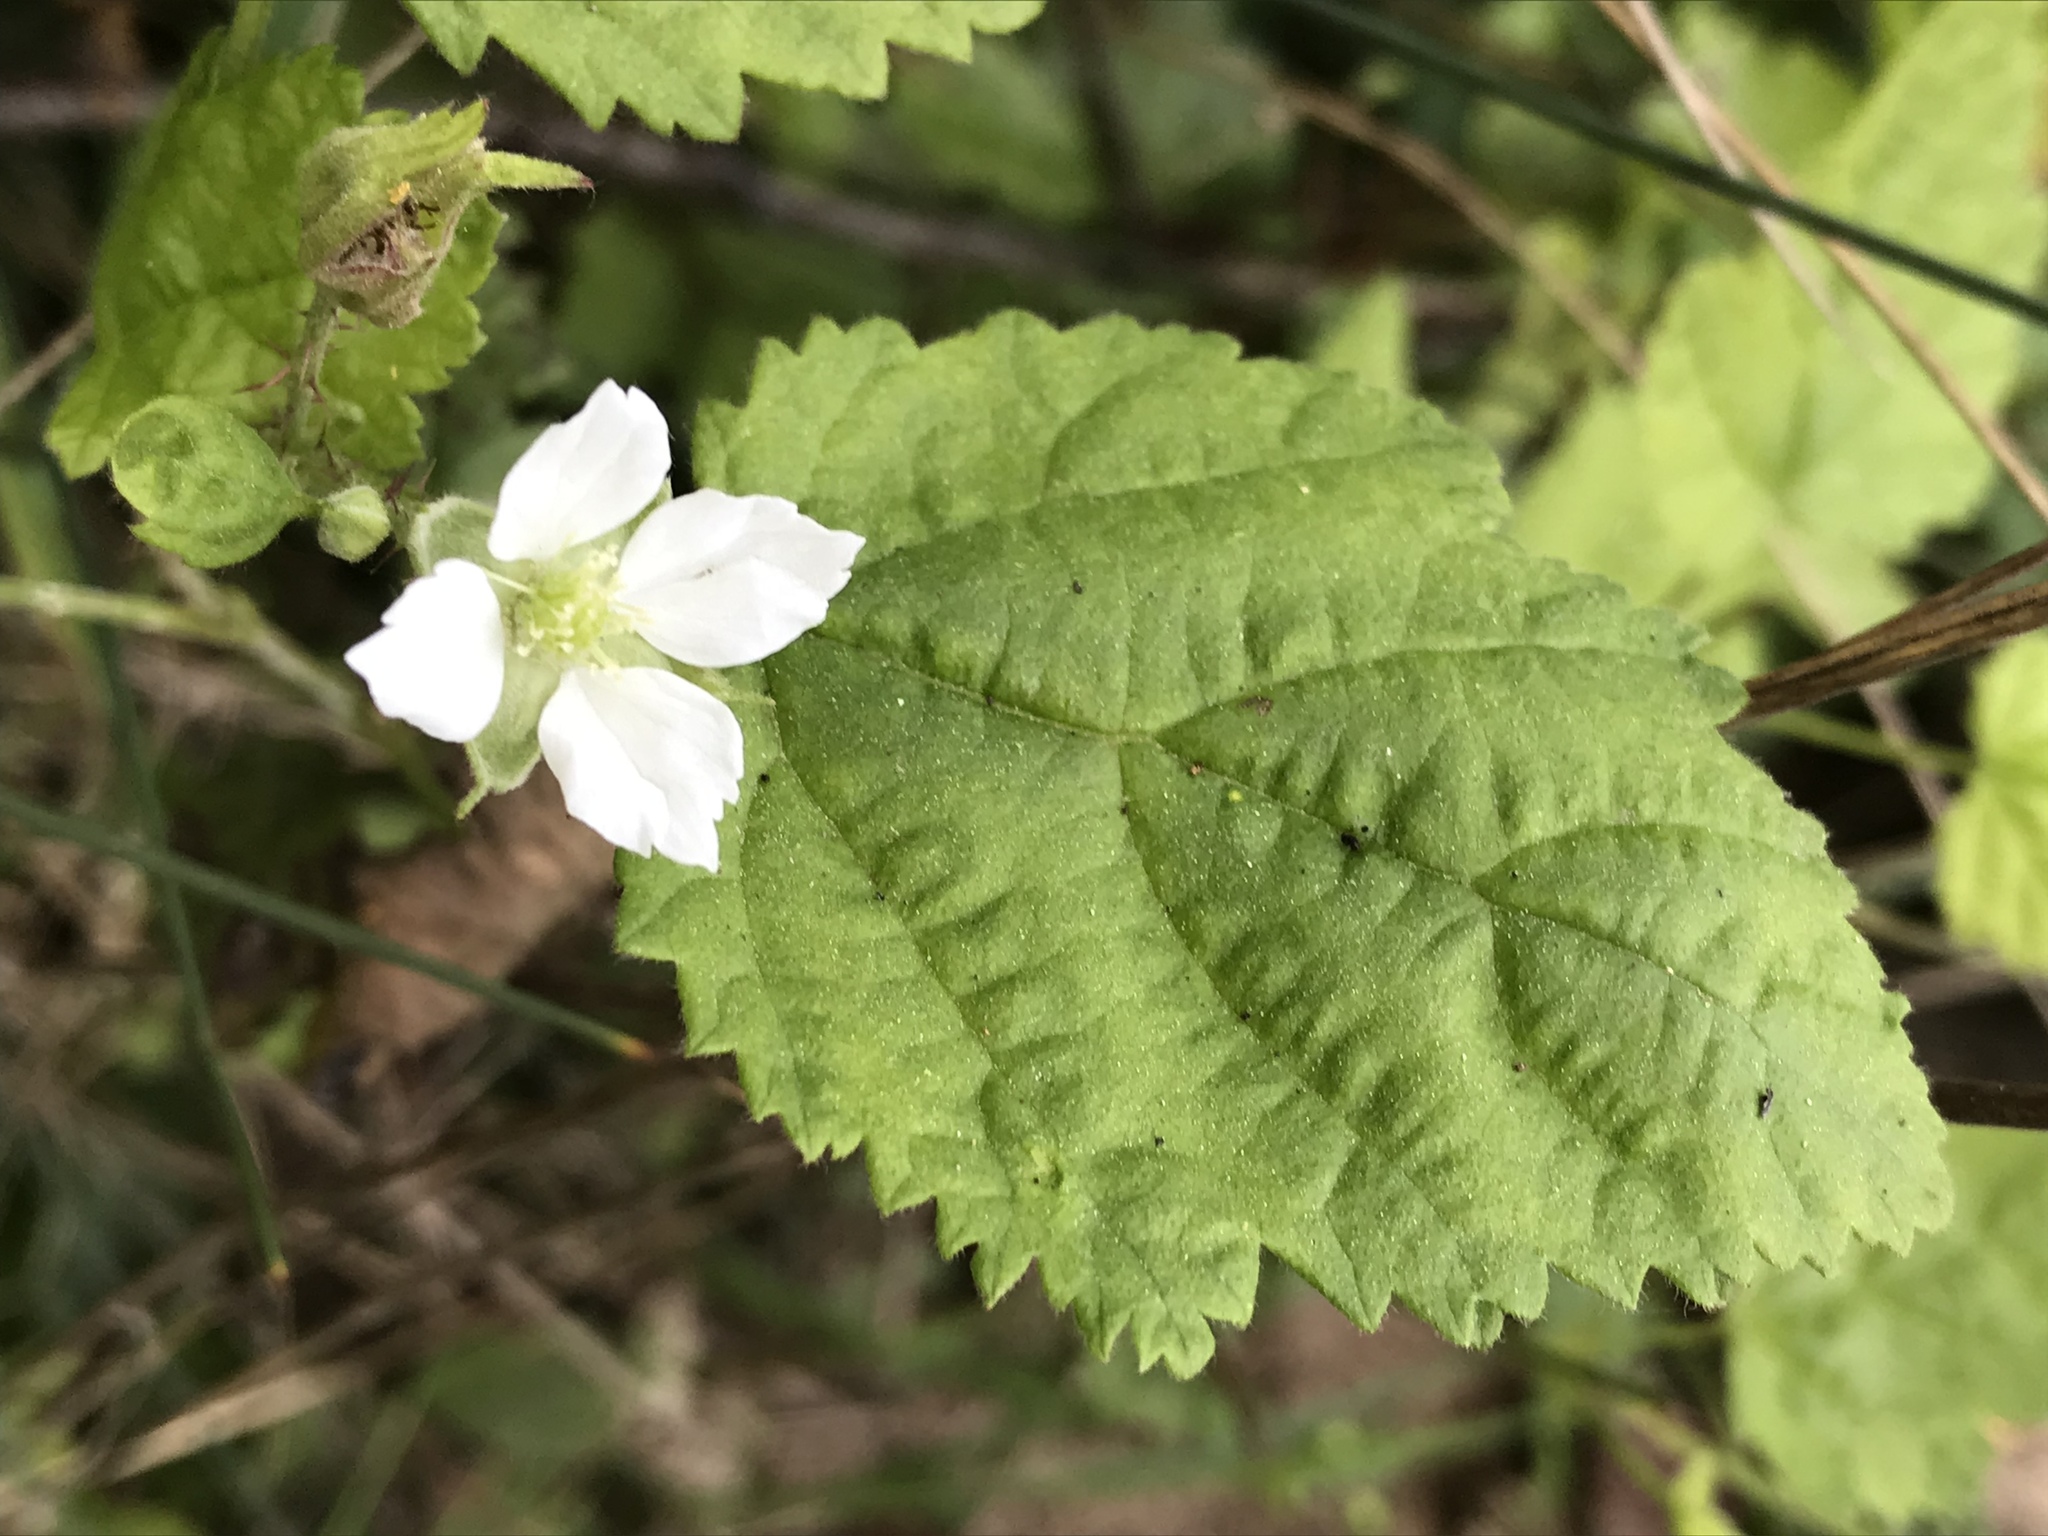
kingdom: Plantae
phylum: Tracheophyta
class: Magnoliopsida
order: Rosales
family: Rosaceae
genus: Rubus
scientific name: Rubus ursinus
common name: Pacific blackberry
